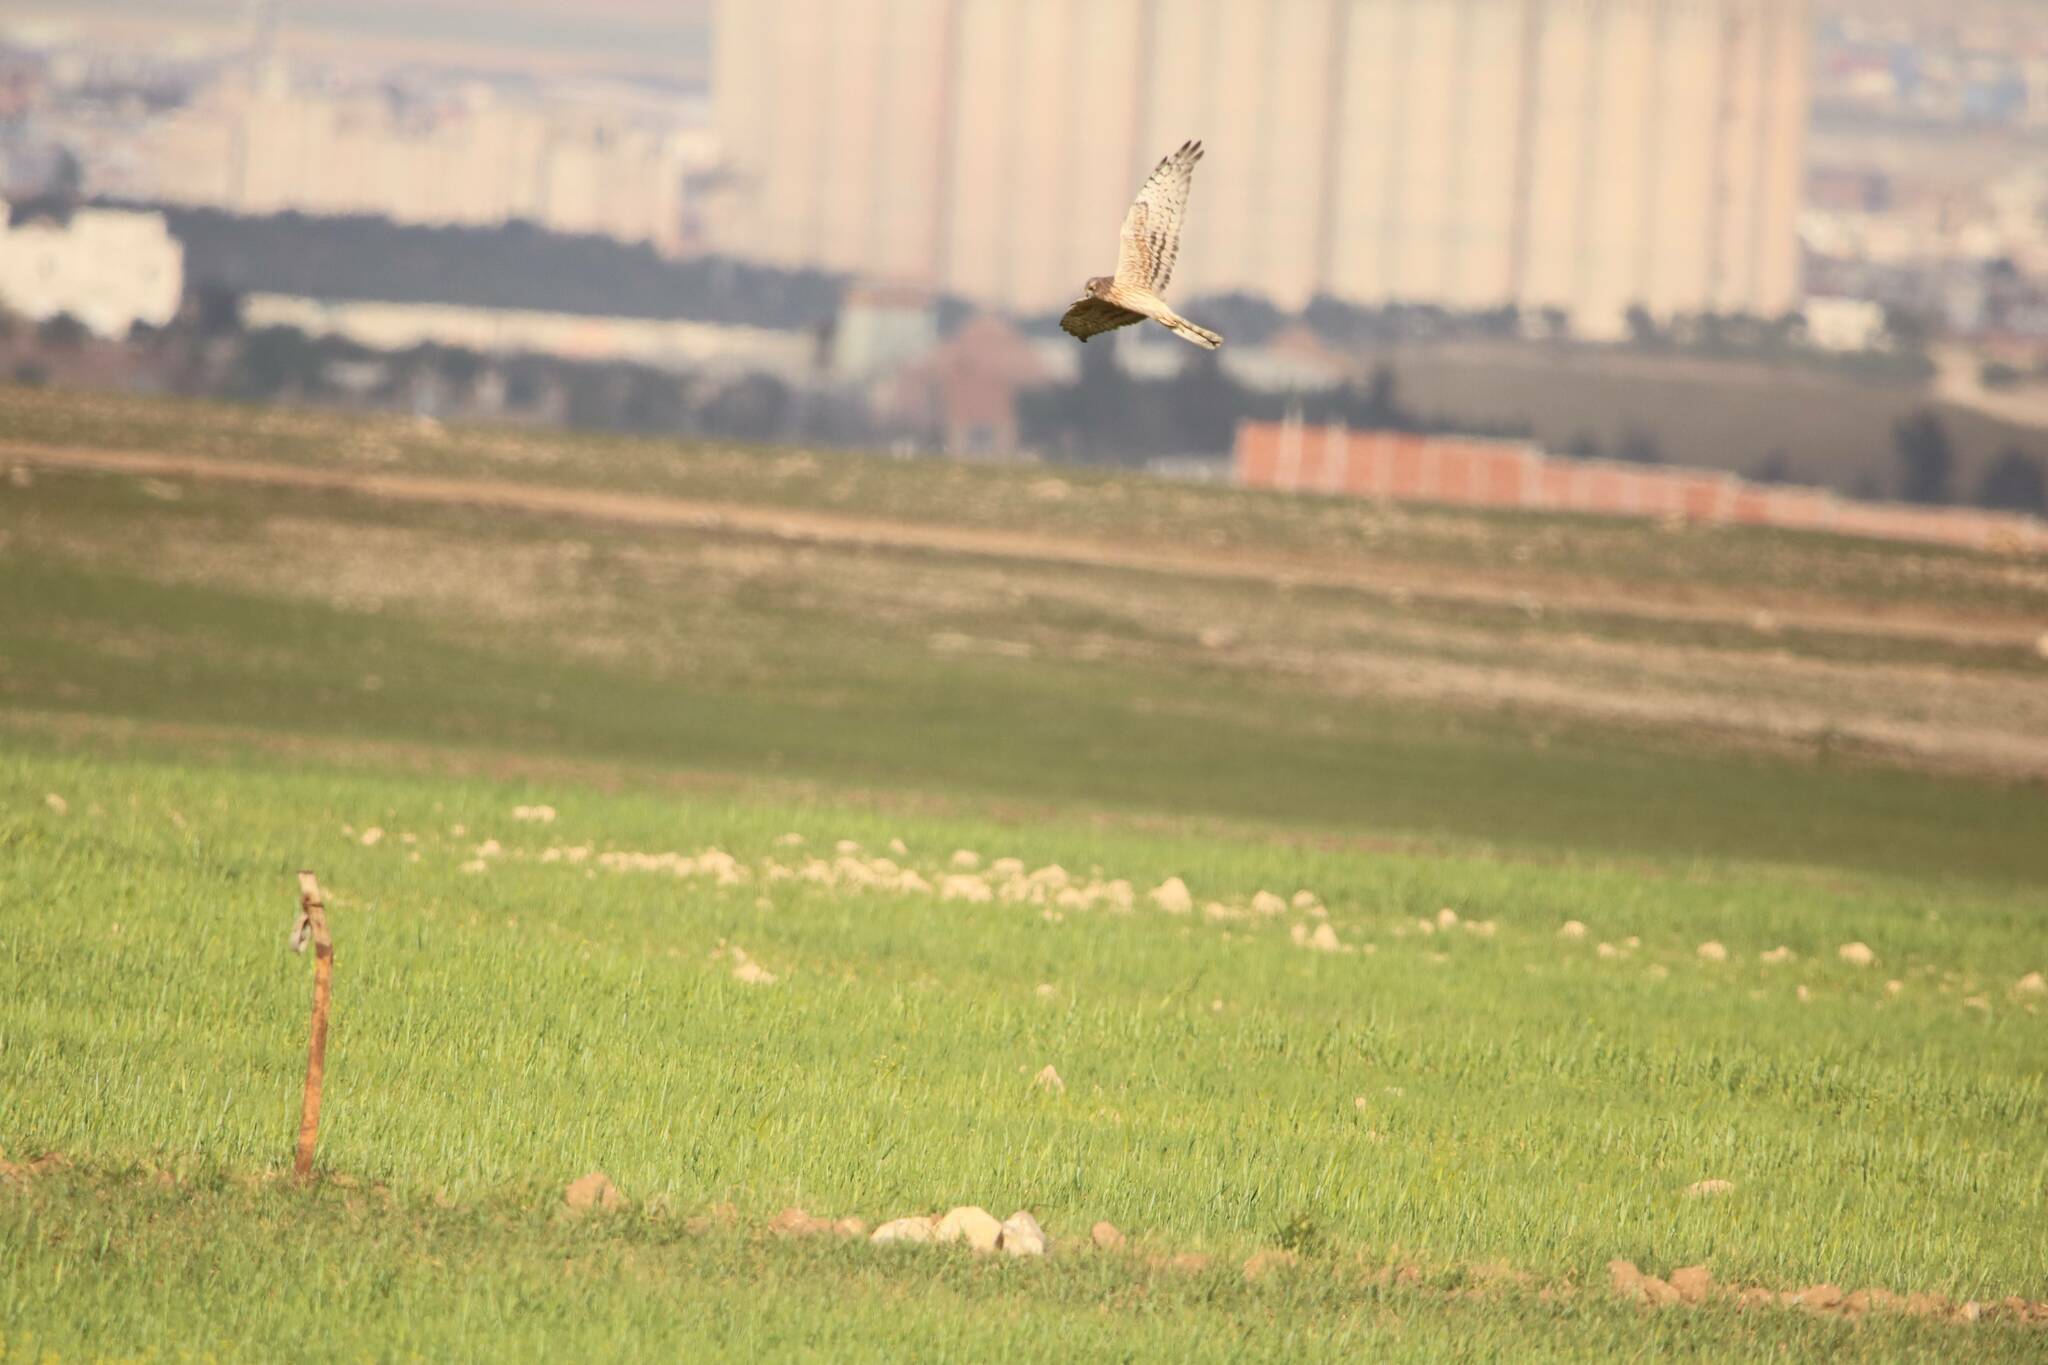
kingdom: Animalia
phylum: Chordata
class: Aves
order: Accipitriformes
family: Accipitridae
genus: Circus
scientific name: Circus pygargus
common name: Montagu's harrier
